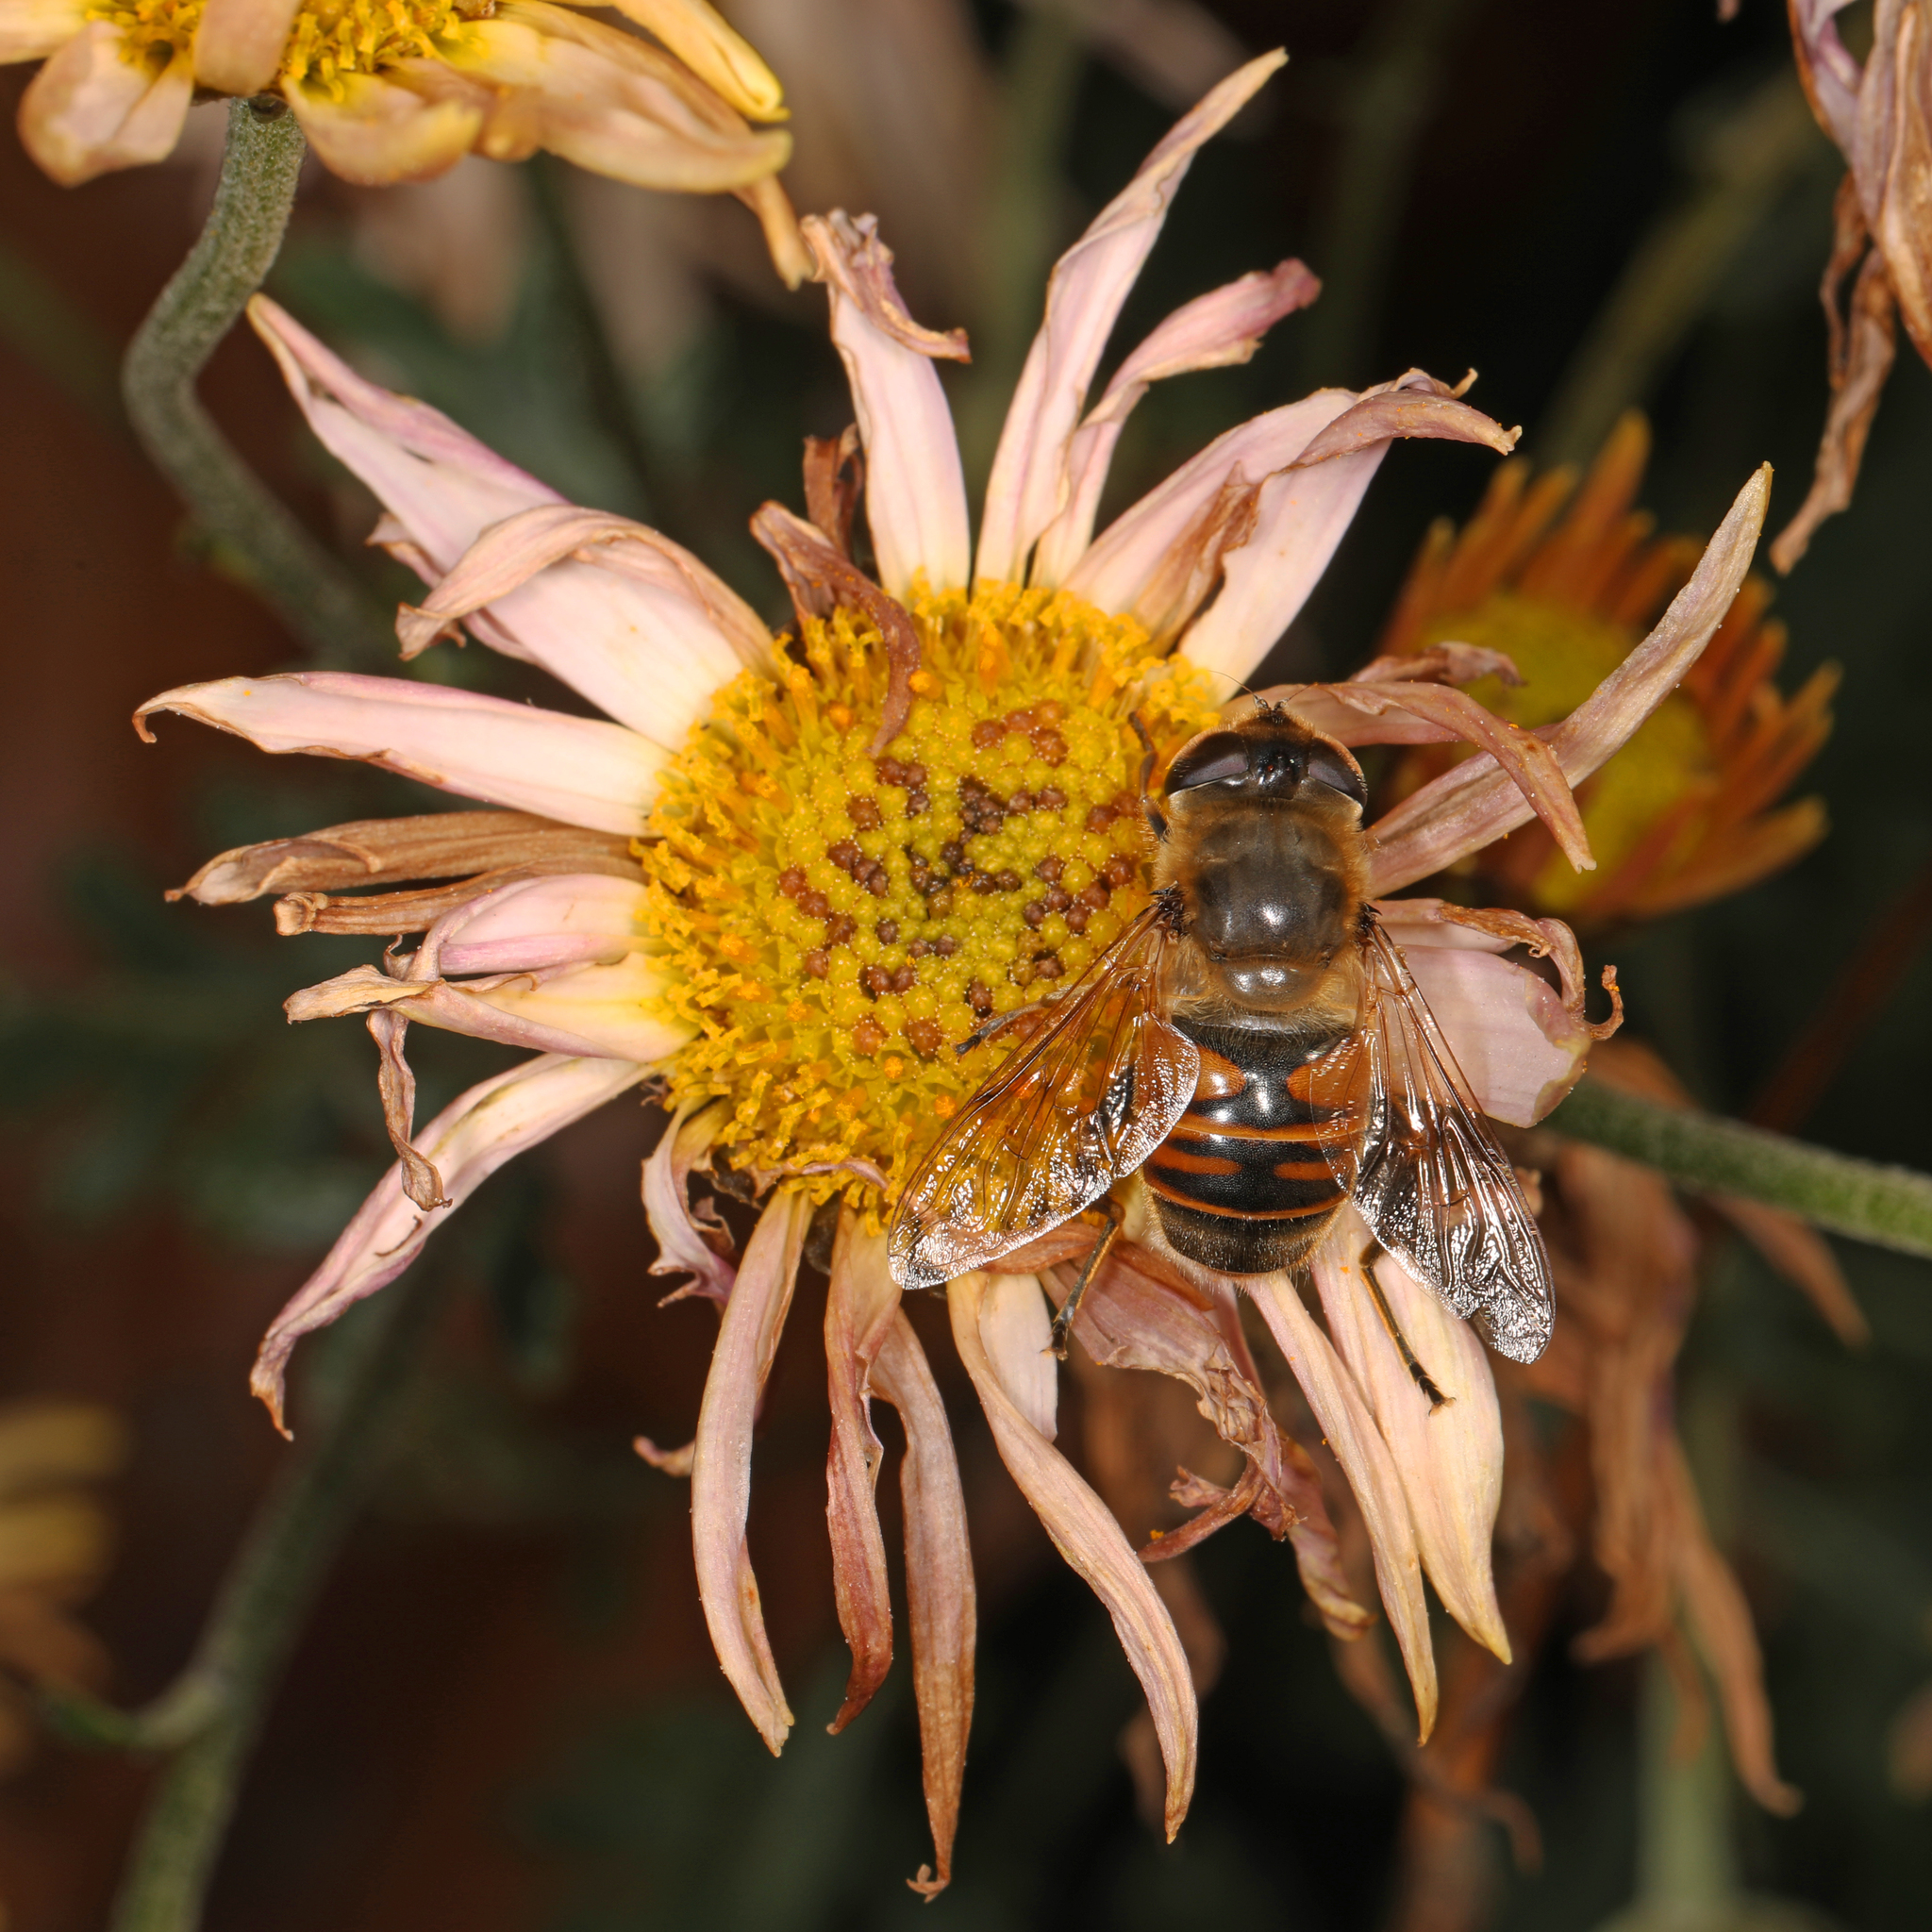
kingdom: Animalia
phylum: Arthropoda
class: Insecta
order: Diptera
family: Syrphidae
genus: Eristalis
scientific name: Eristalis tenax
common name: Drone fly
